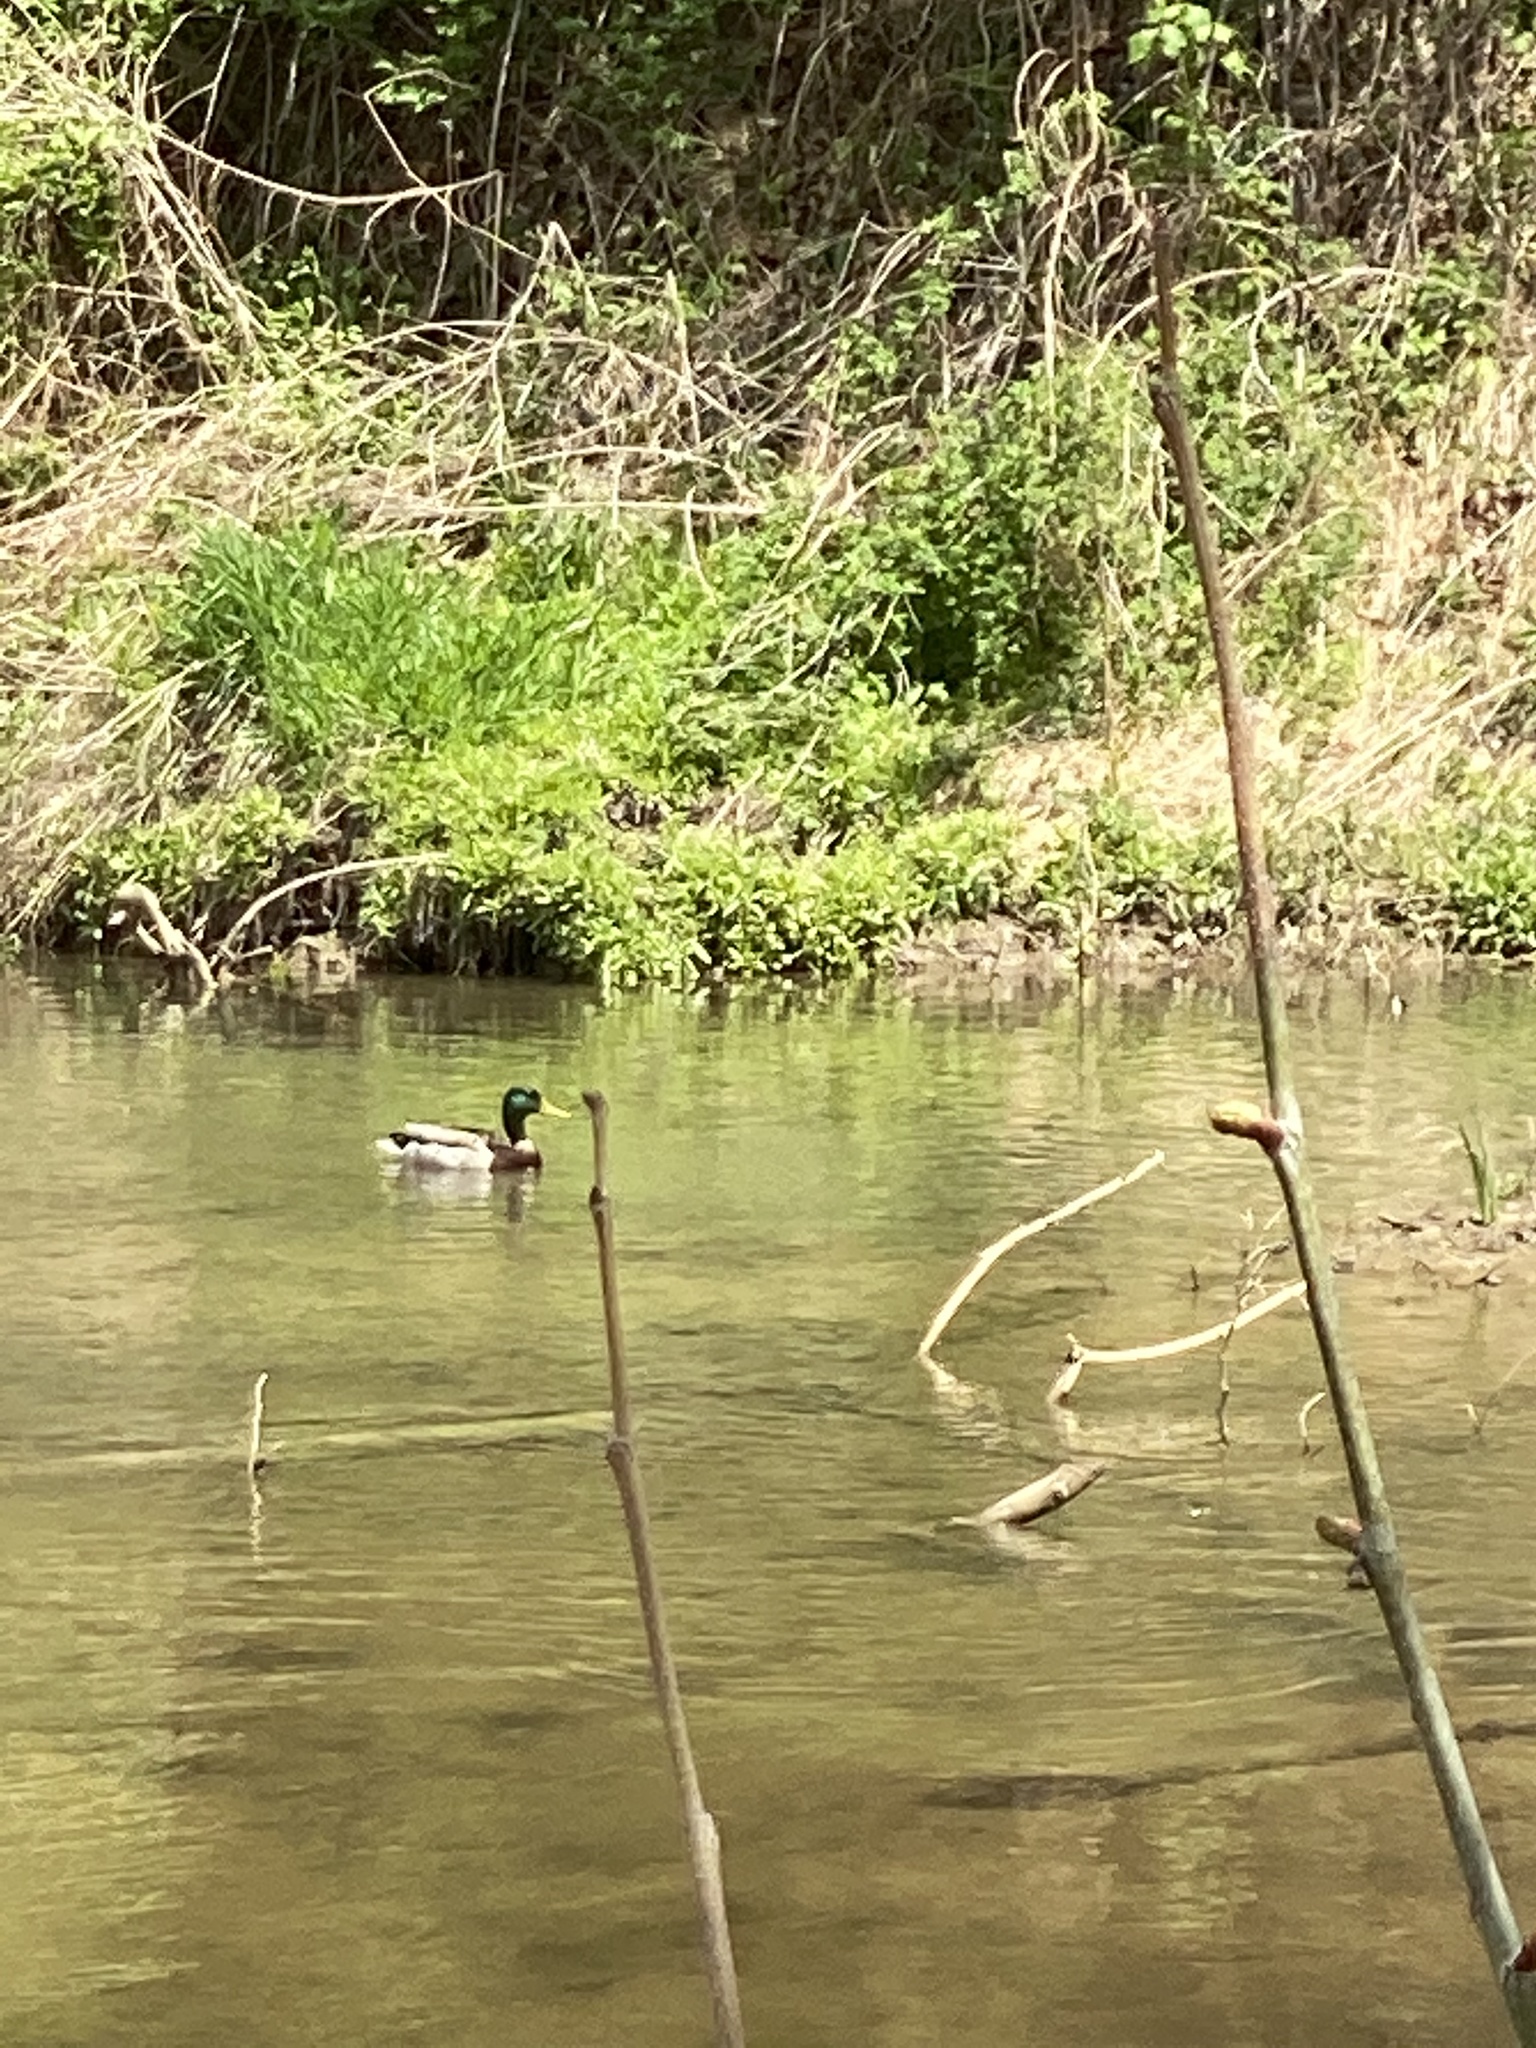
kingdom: Animalia
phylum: Chordata
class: Aves
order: Anseriformes
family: Anatidae
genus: Anas
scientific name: Anas platyrhynchos
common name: Mallard
